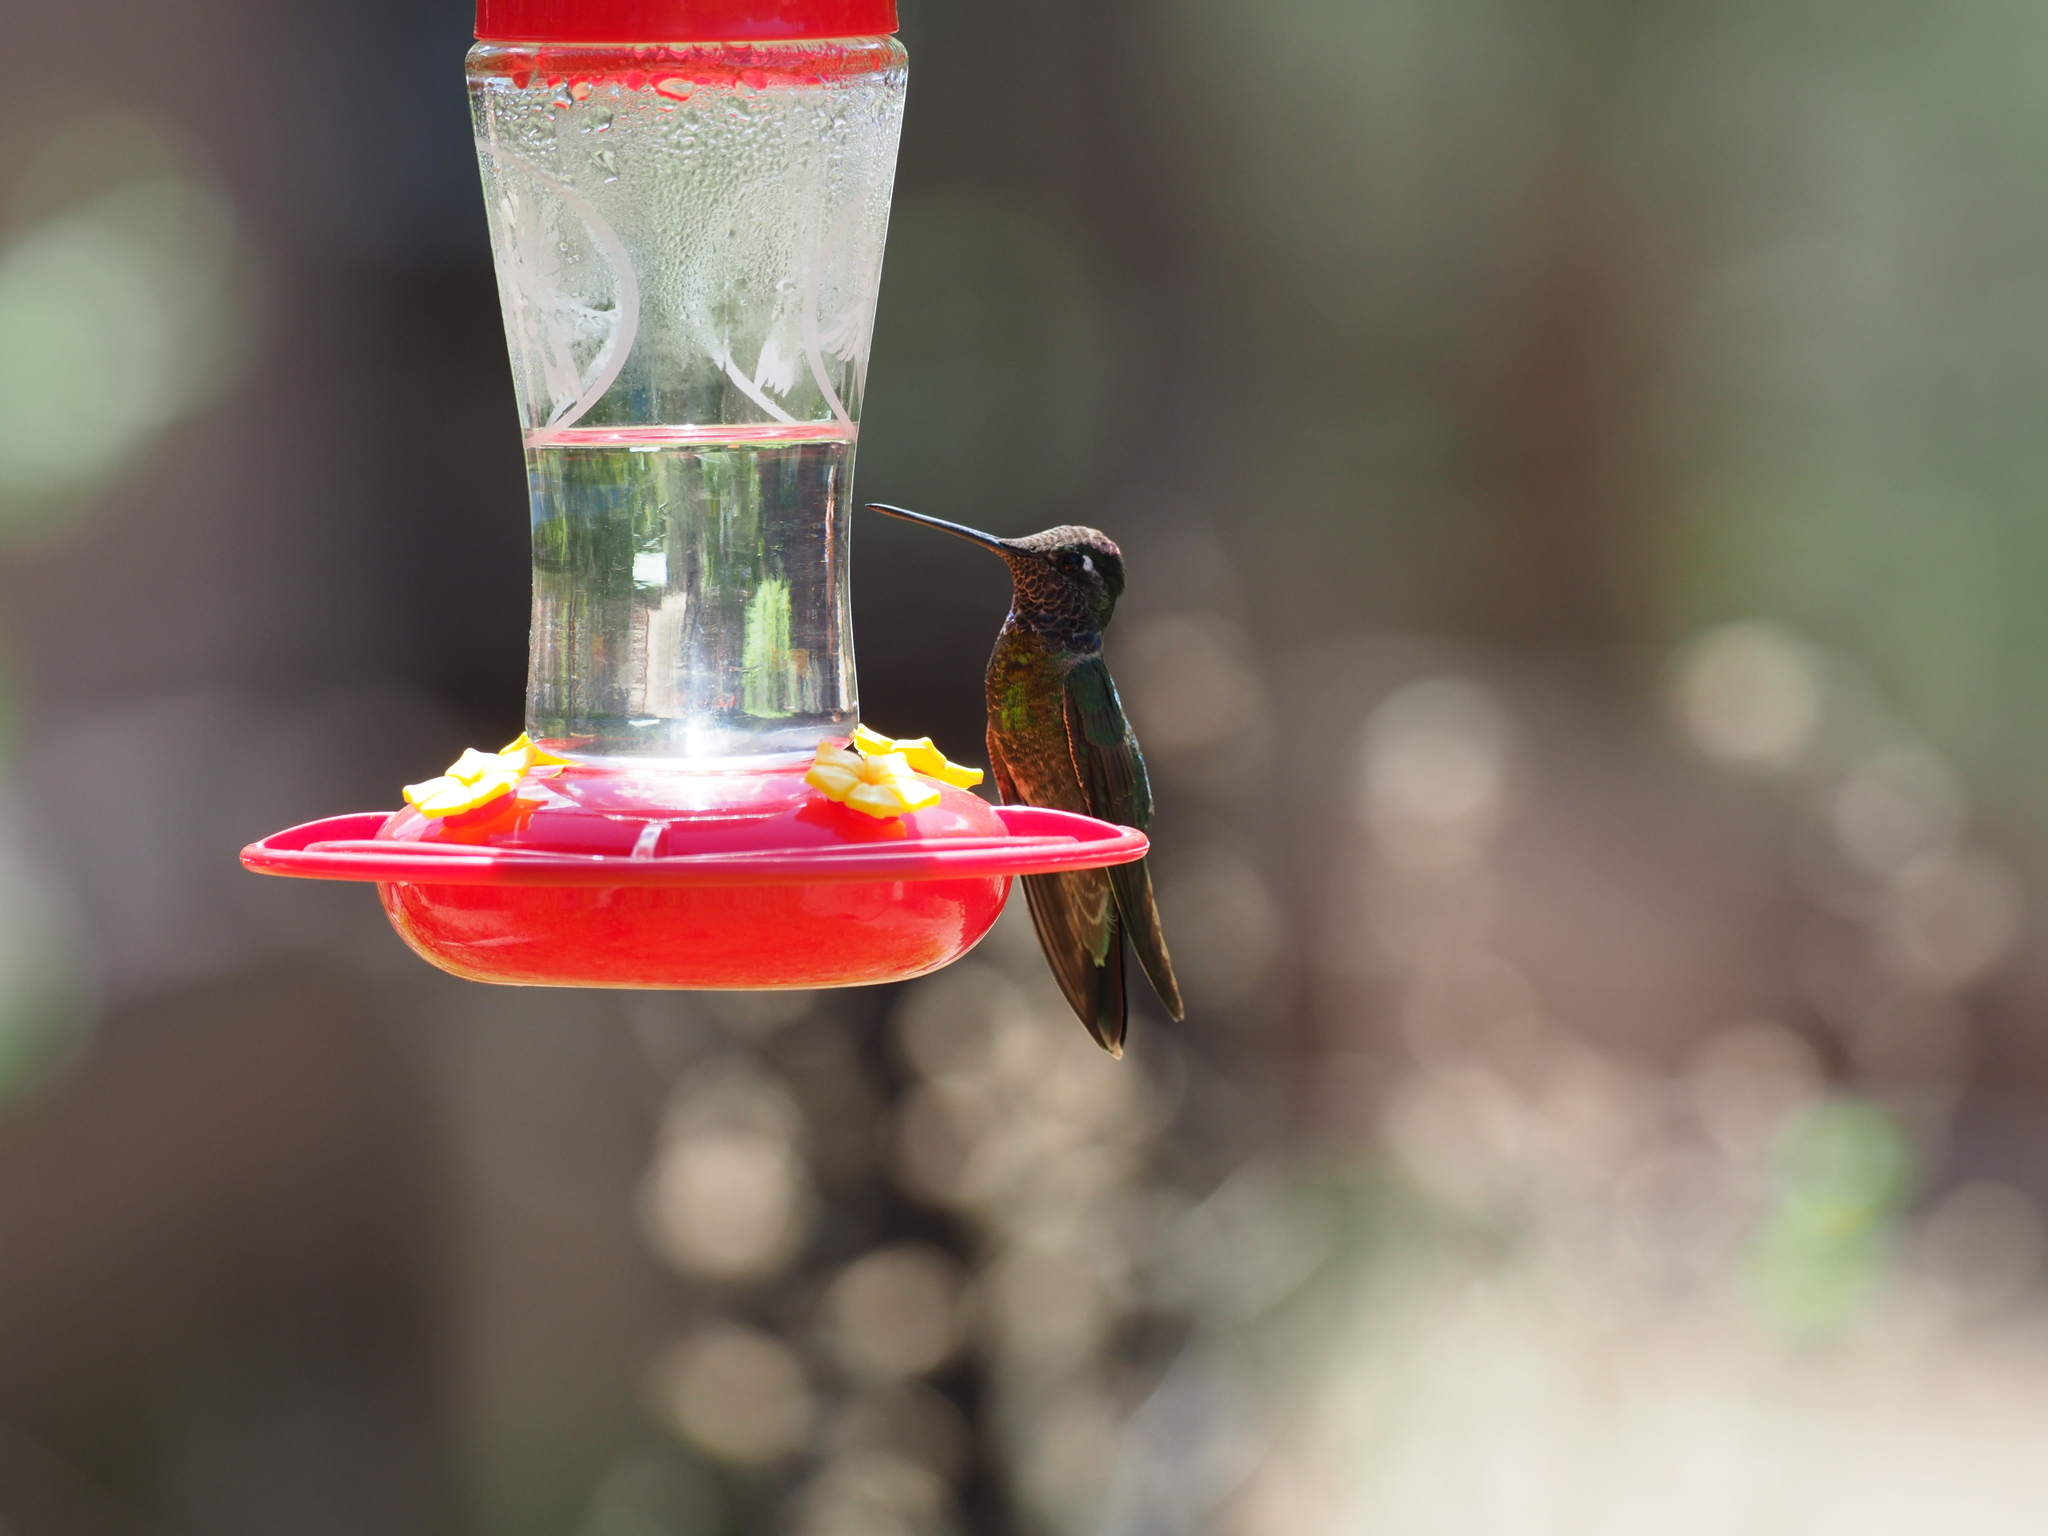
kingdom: Animalia
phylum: Chordata
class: Aves
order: Apodiformes
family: Trochilidae
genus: Eugenes
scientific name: Eugenes fulgens
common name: Magnificent hummingbird
